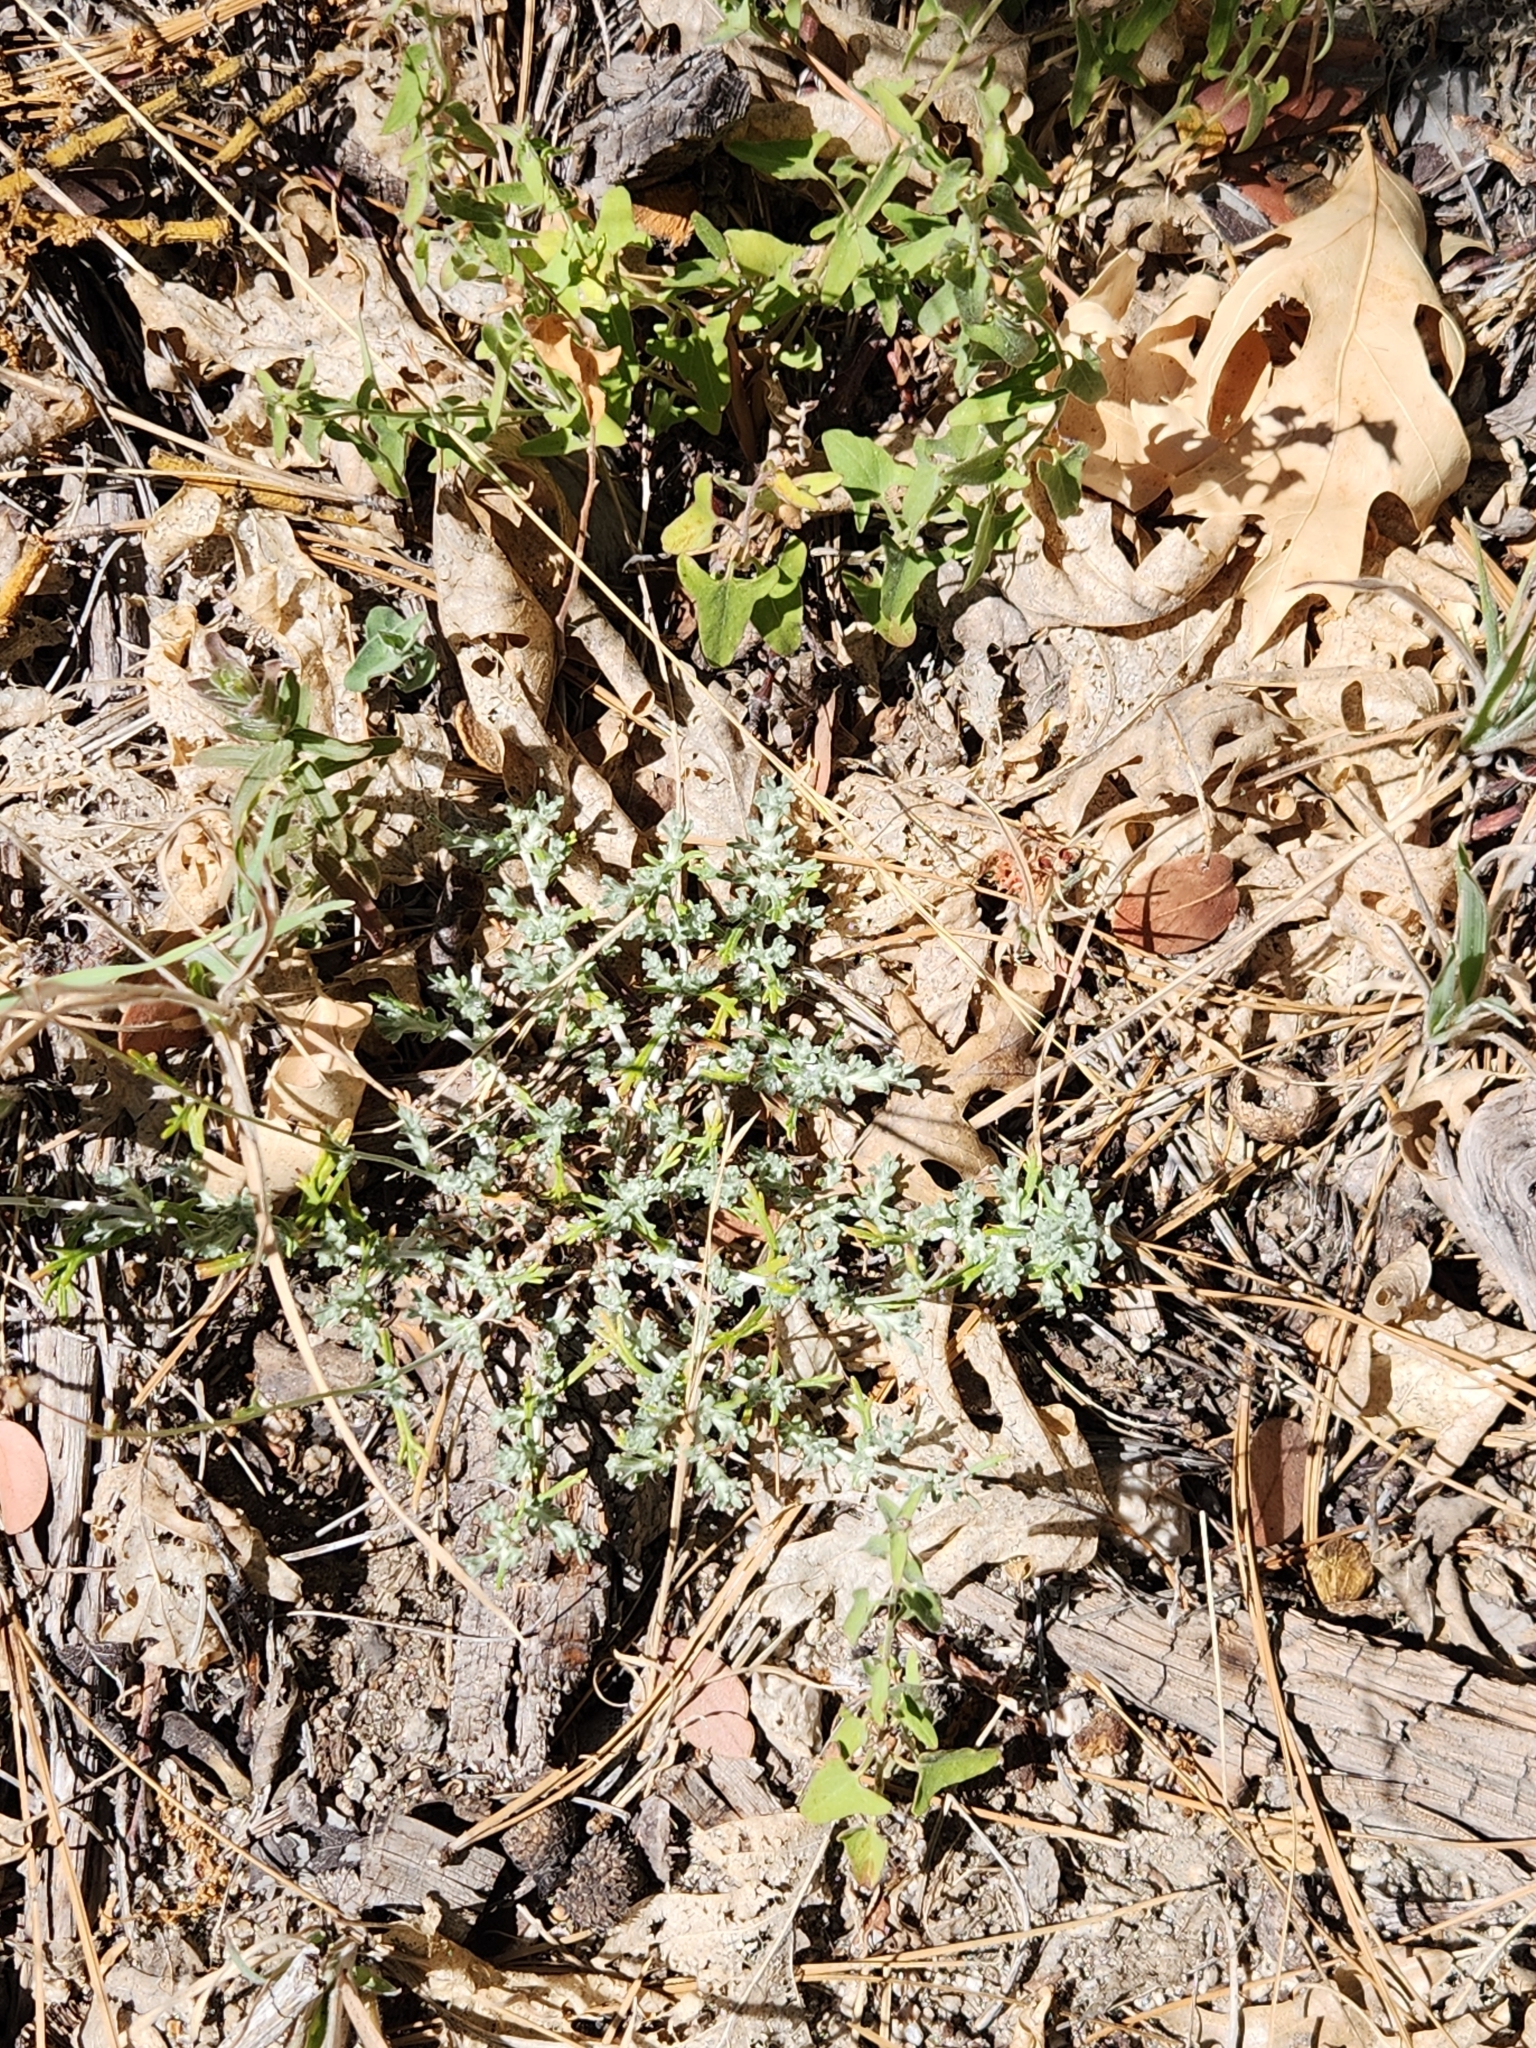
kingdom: Plantae
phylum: Tracheophyta
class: Magnoliopsida
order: Asterales
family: Asteraceae
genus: Eriophyllum
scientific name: Eriophyllum confertiflorum
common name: Golden-yarrow
